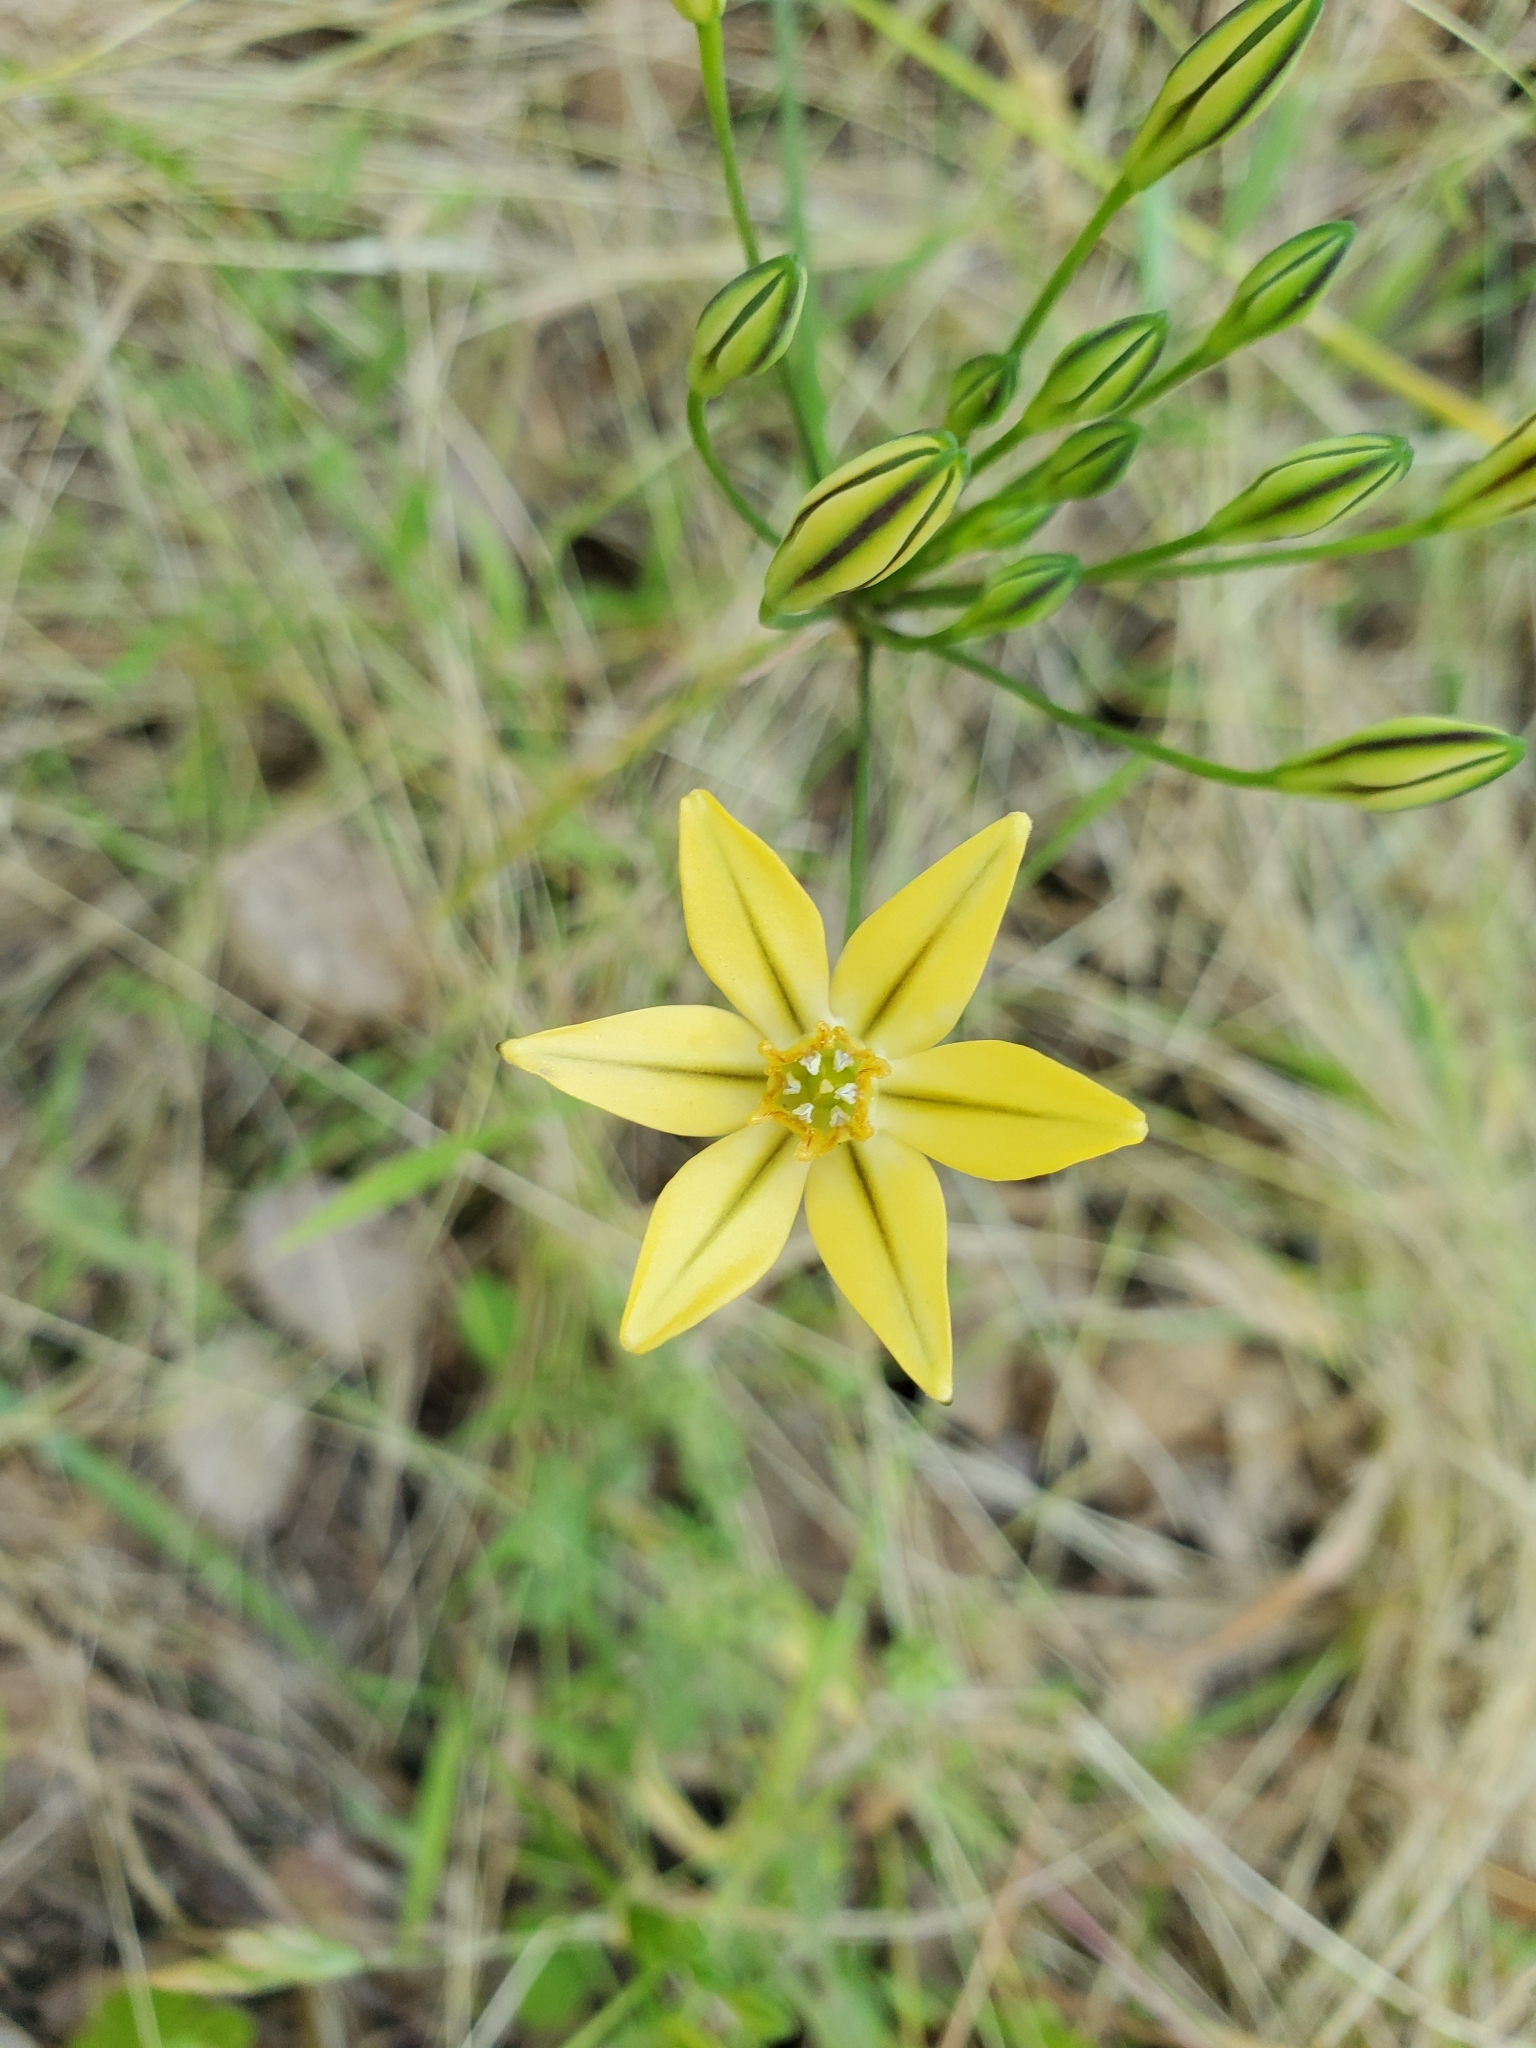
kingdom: Plantae
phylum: Tracheophyta
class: Liliopsida
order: Asparagales
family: Asparagaceae
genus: Triteleia
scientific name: Triteleia ixioides
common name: Yellow-brodiaea
